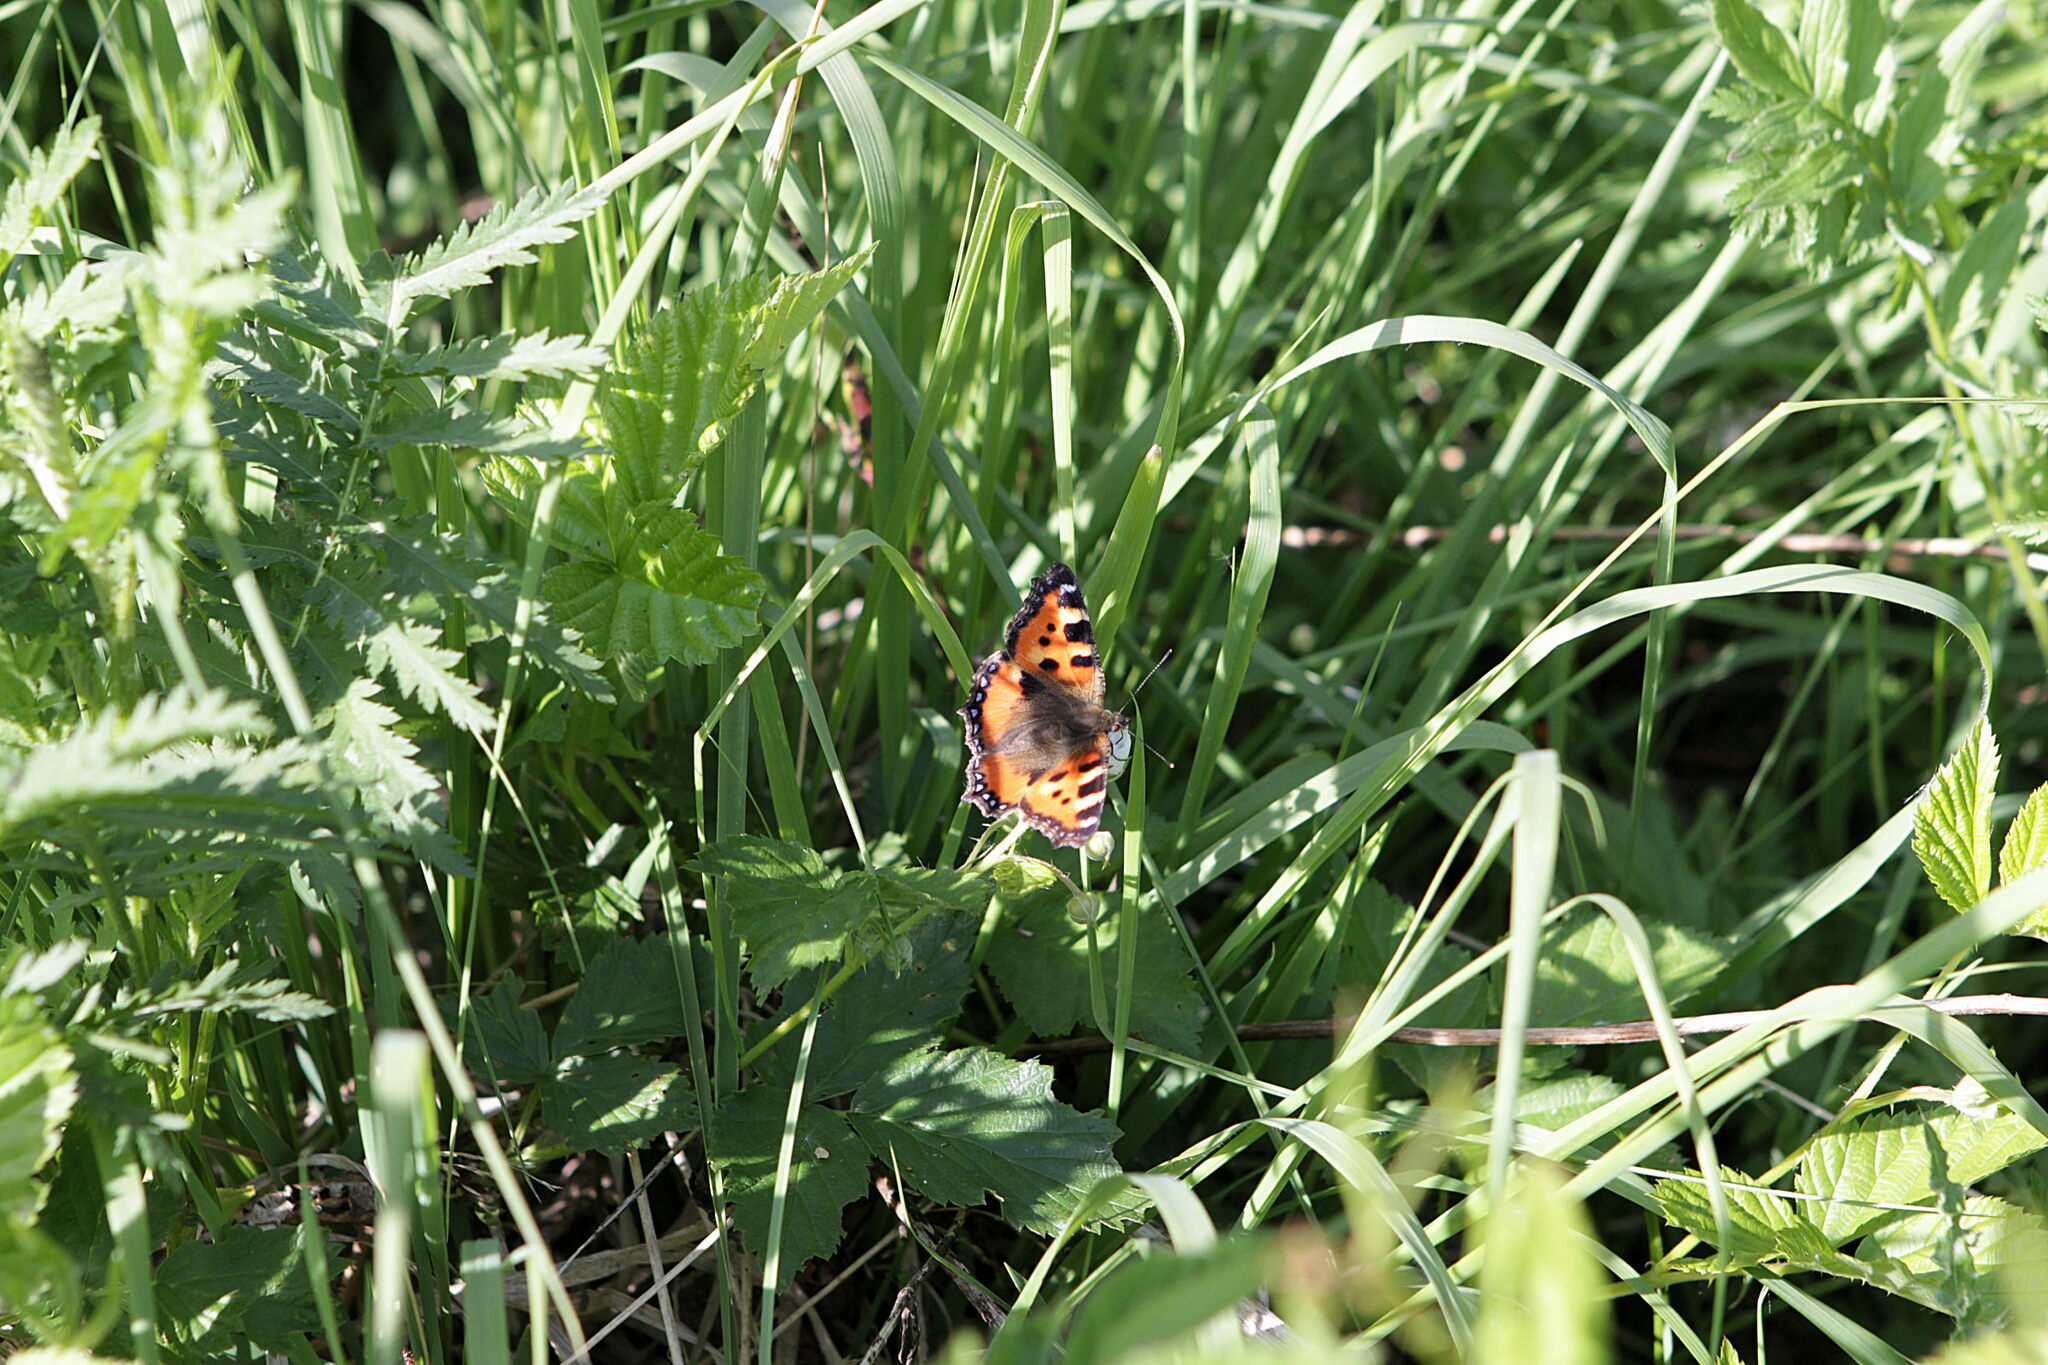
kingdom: Animalia
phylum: Arthropoda
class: Insecta
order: Lepidoptera
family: Nymphalidae
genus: Aglais
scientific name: Aglais urticae
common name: Small tortoiseshell
